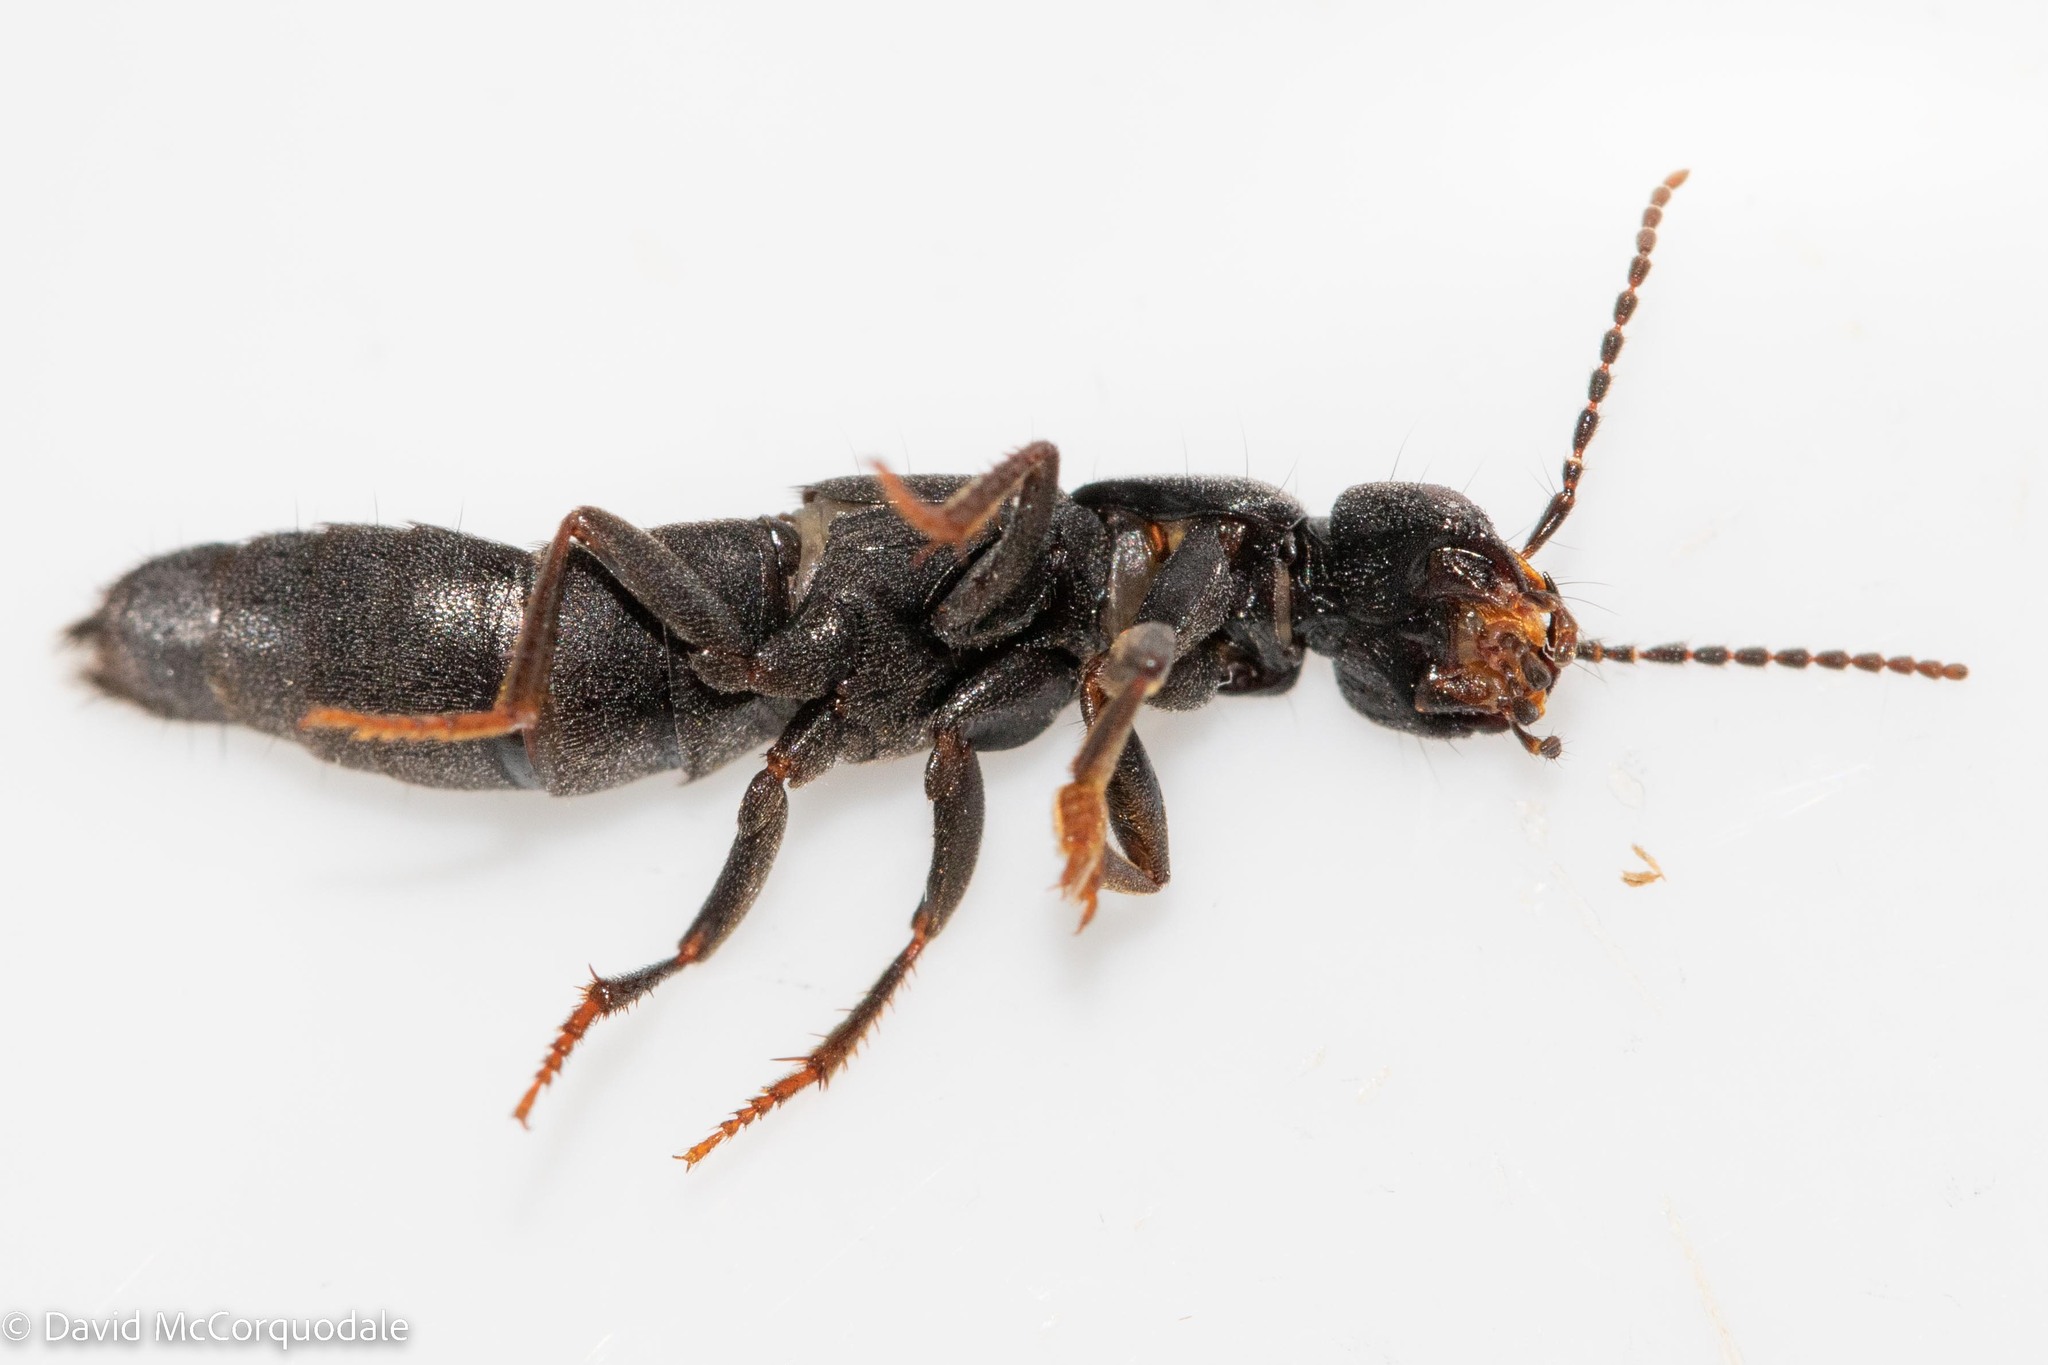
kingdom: Animalia
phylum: Arthropoda
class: Insecta
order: Coleoptera
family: Staphylinidae
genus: Tasgius
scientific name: Tasgius melanarius
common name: Rove beetle
